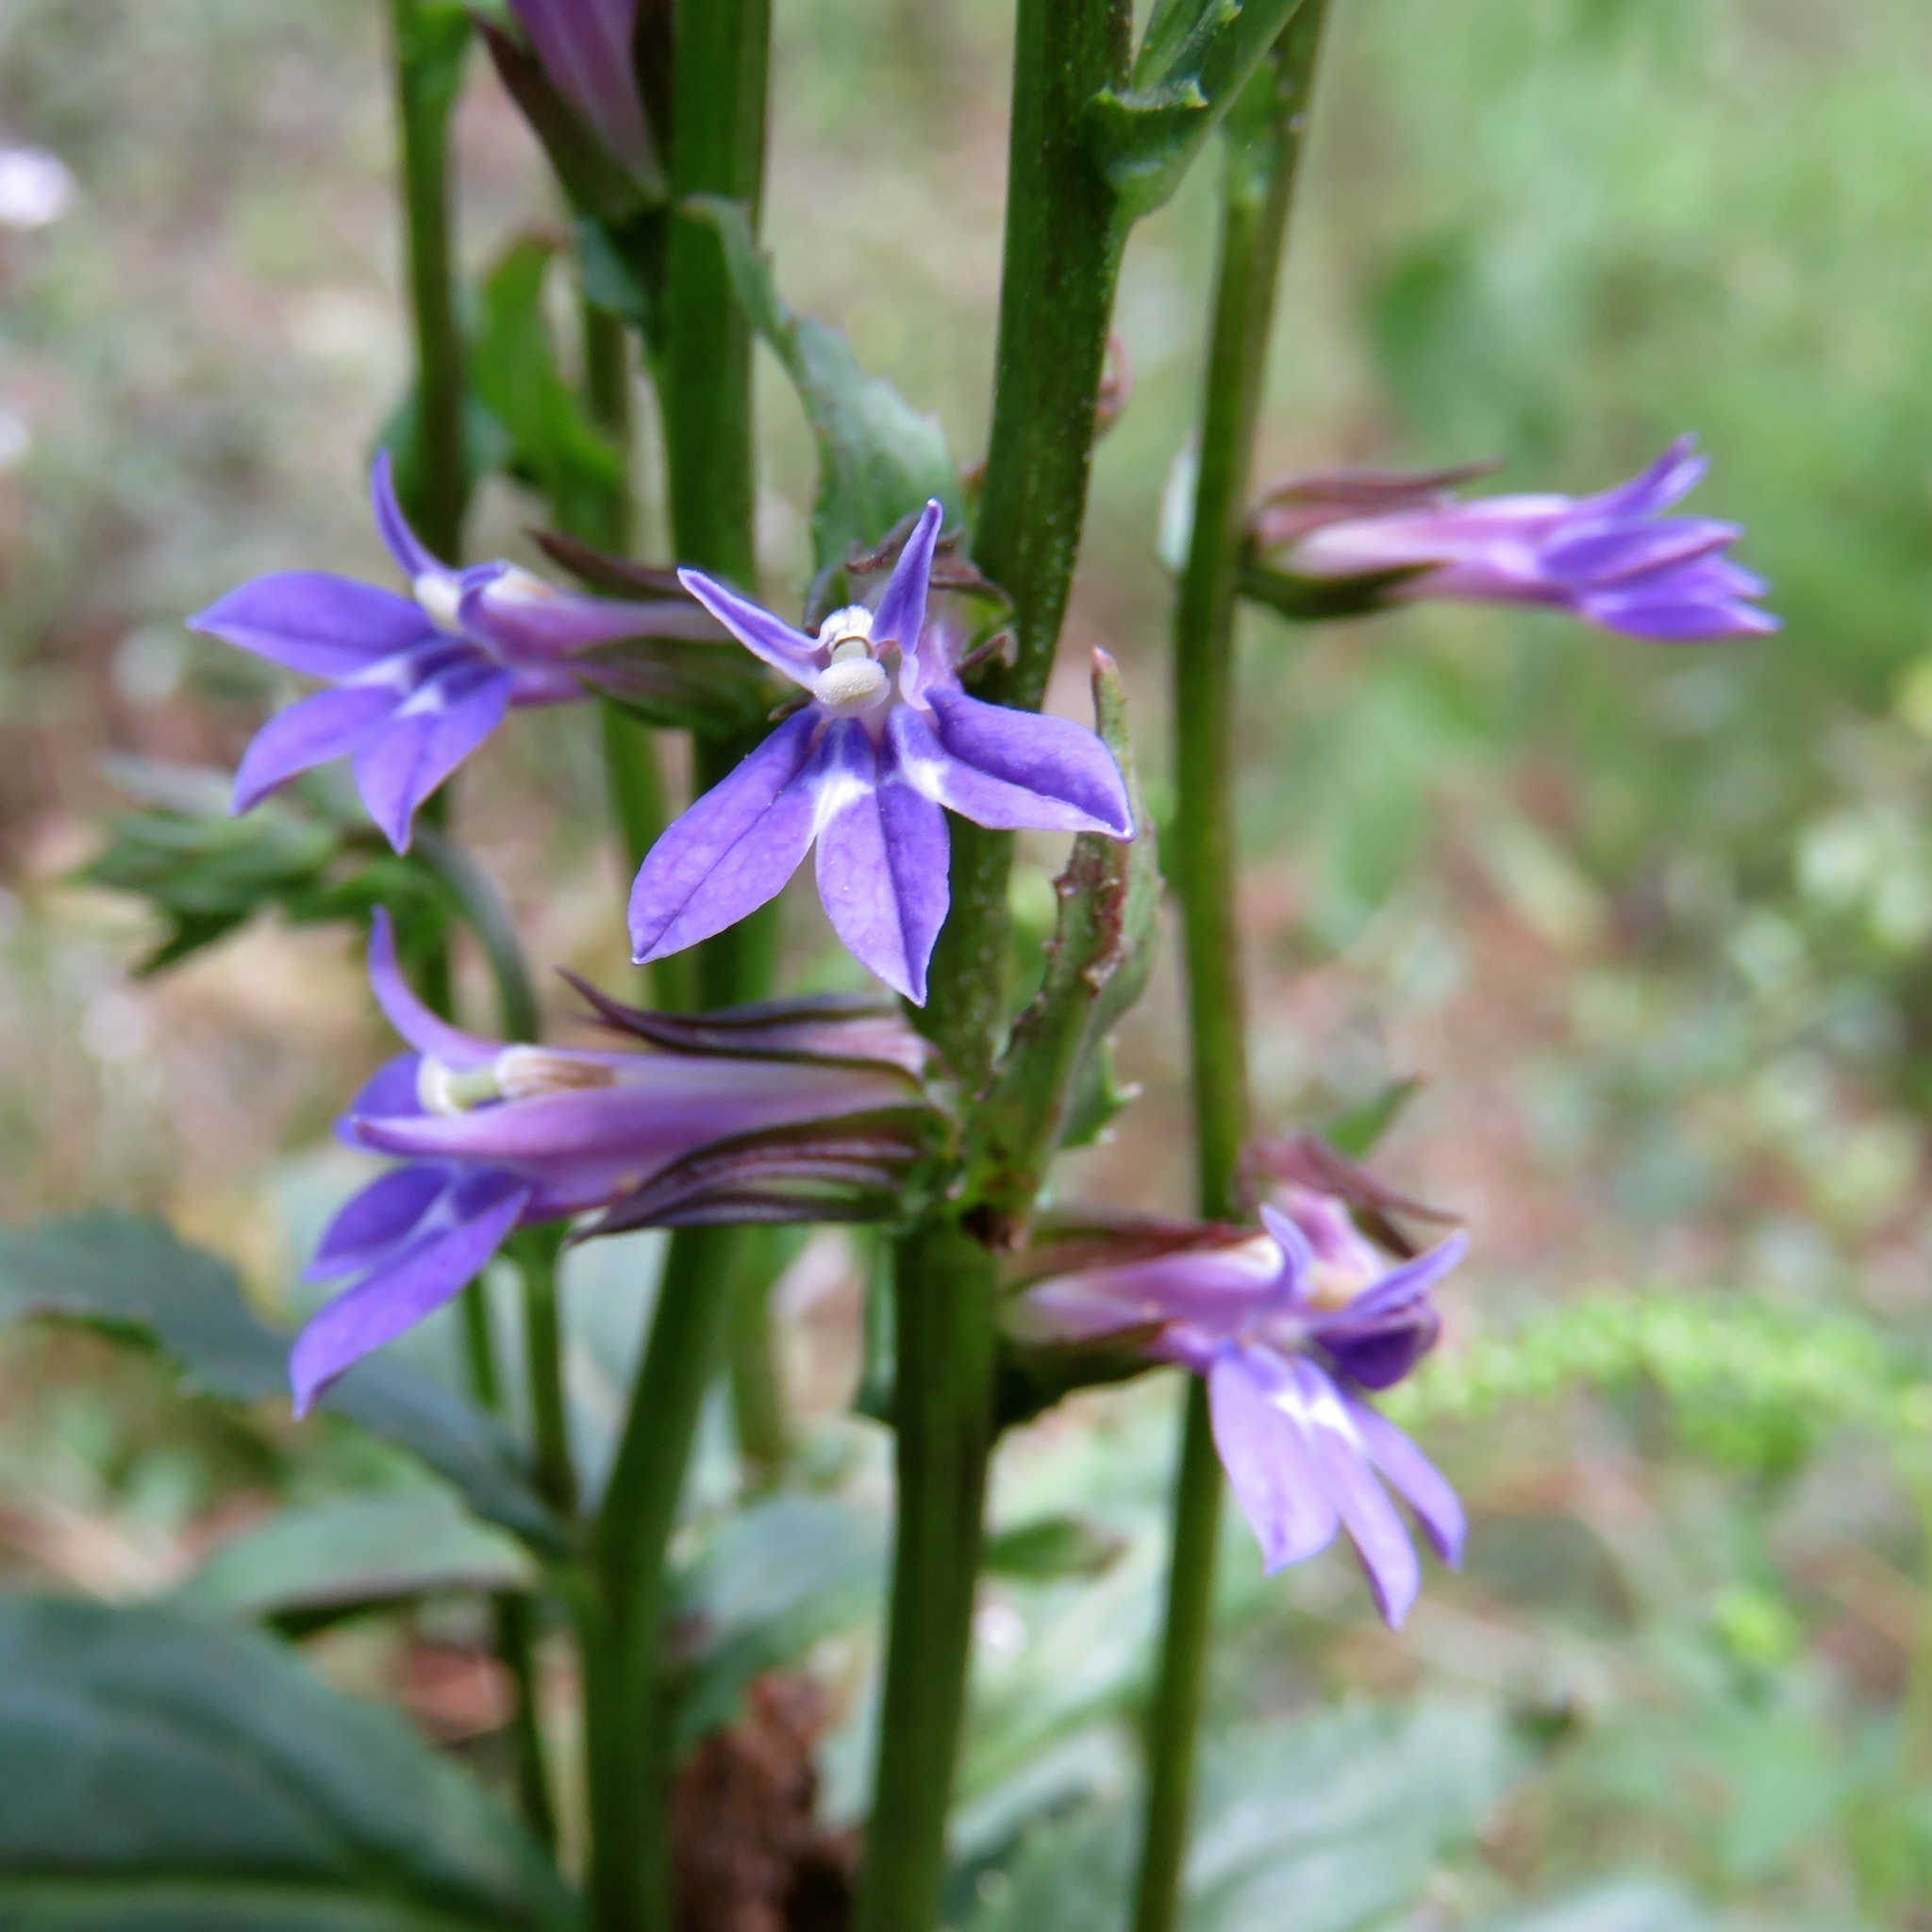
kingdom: Plantae
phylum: Tracheophyta
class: Magnoliopsida
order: Asterales
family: Campanulaceae
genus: Lobelia
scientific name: Lobelia puberula
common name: Purple dewdrop
